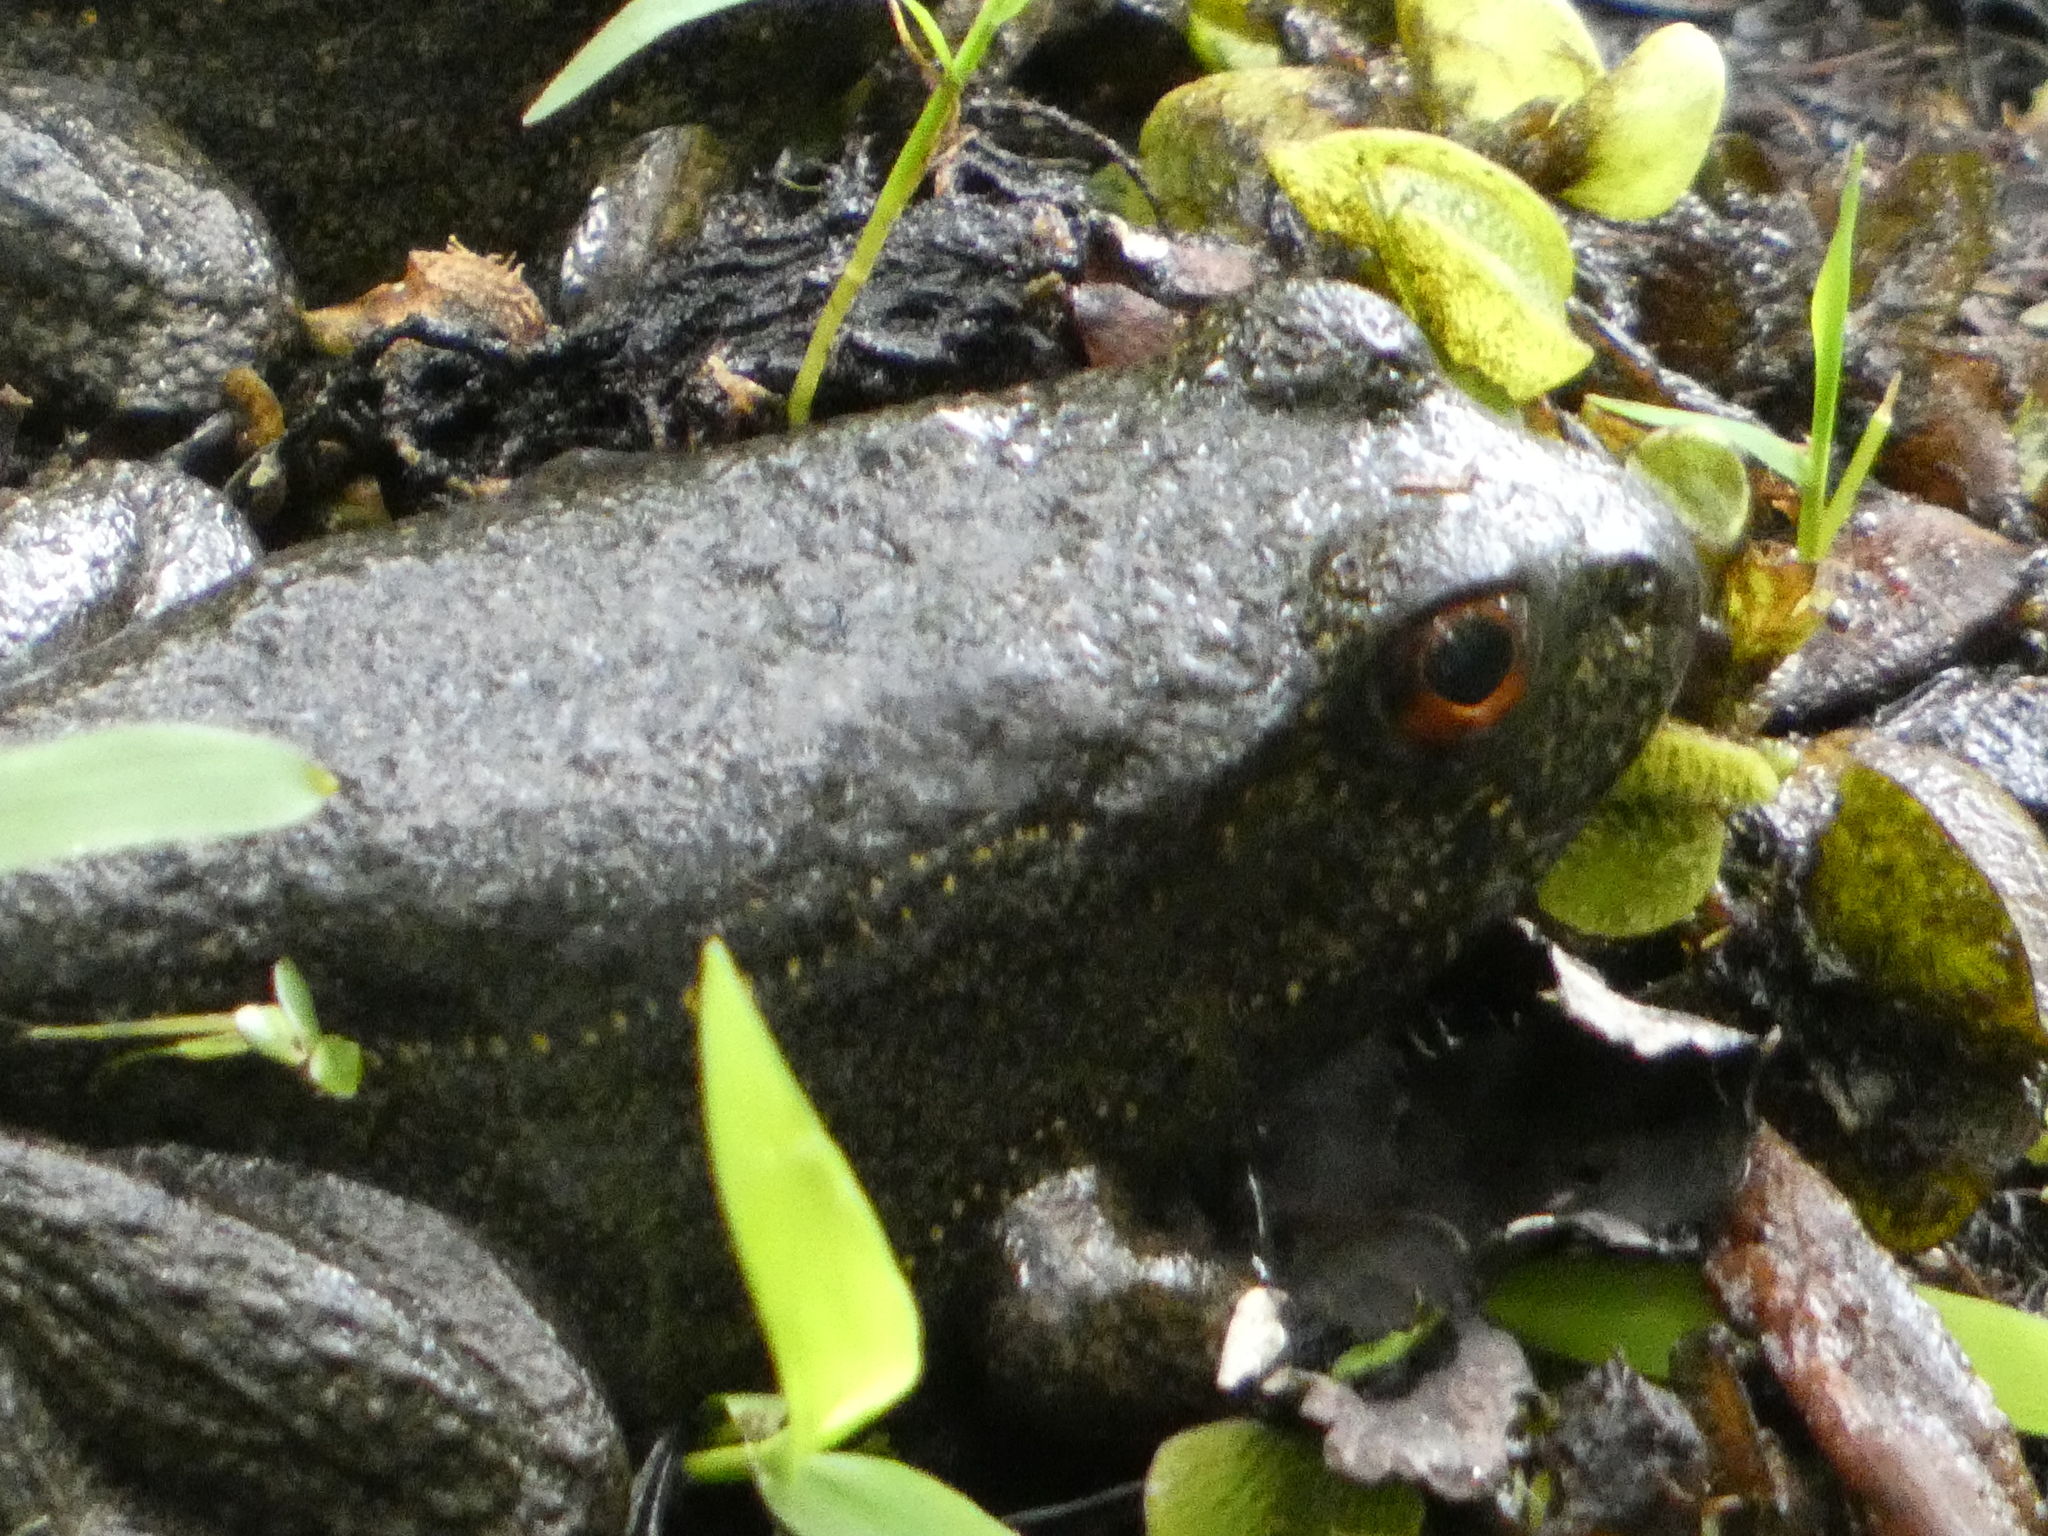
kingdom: Animalia
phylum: Chordata
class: Amphibia
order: Anura
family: Ranidae
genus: Lithobates
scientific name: Lithobates heckscheri
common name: River frog
